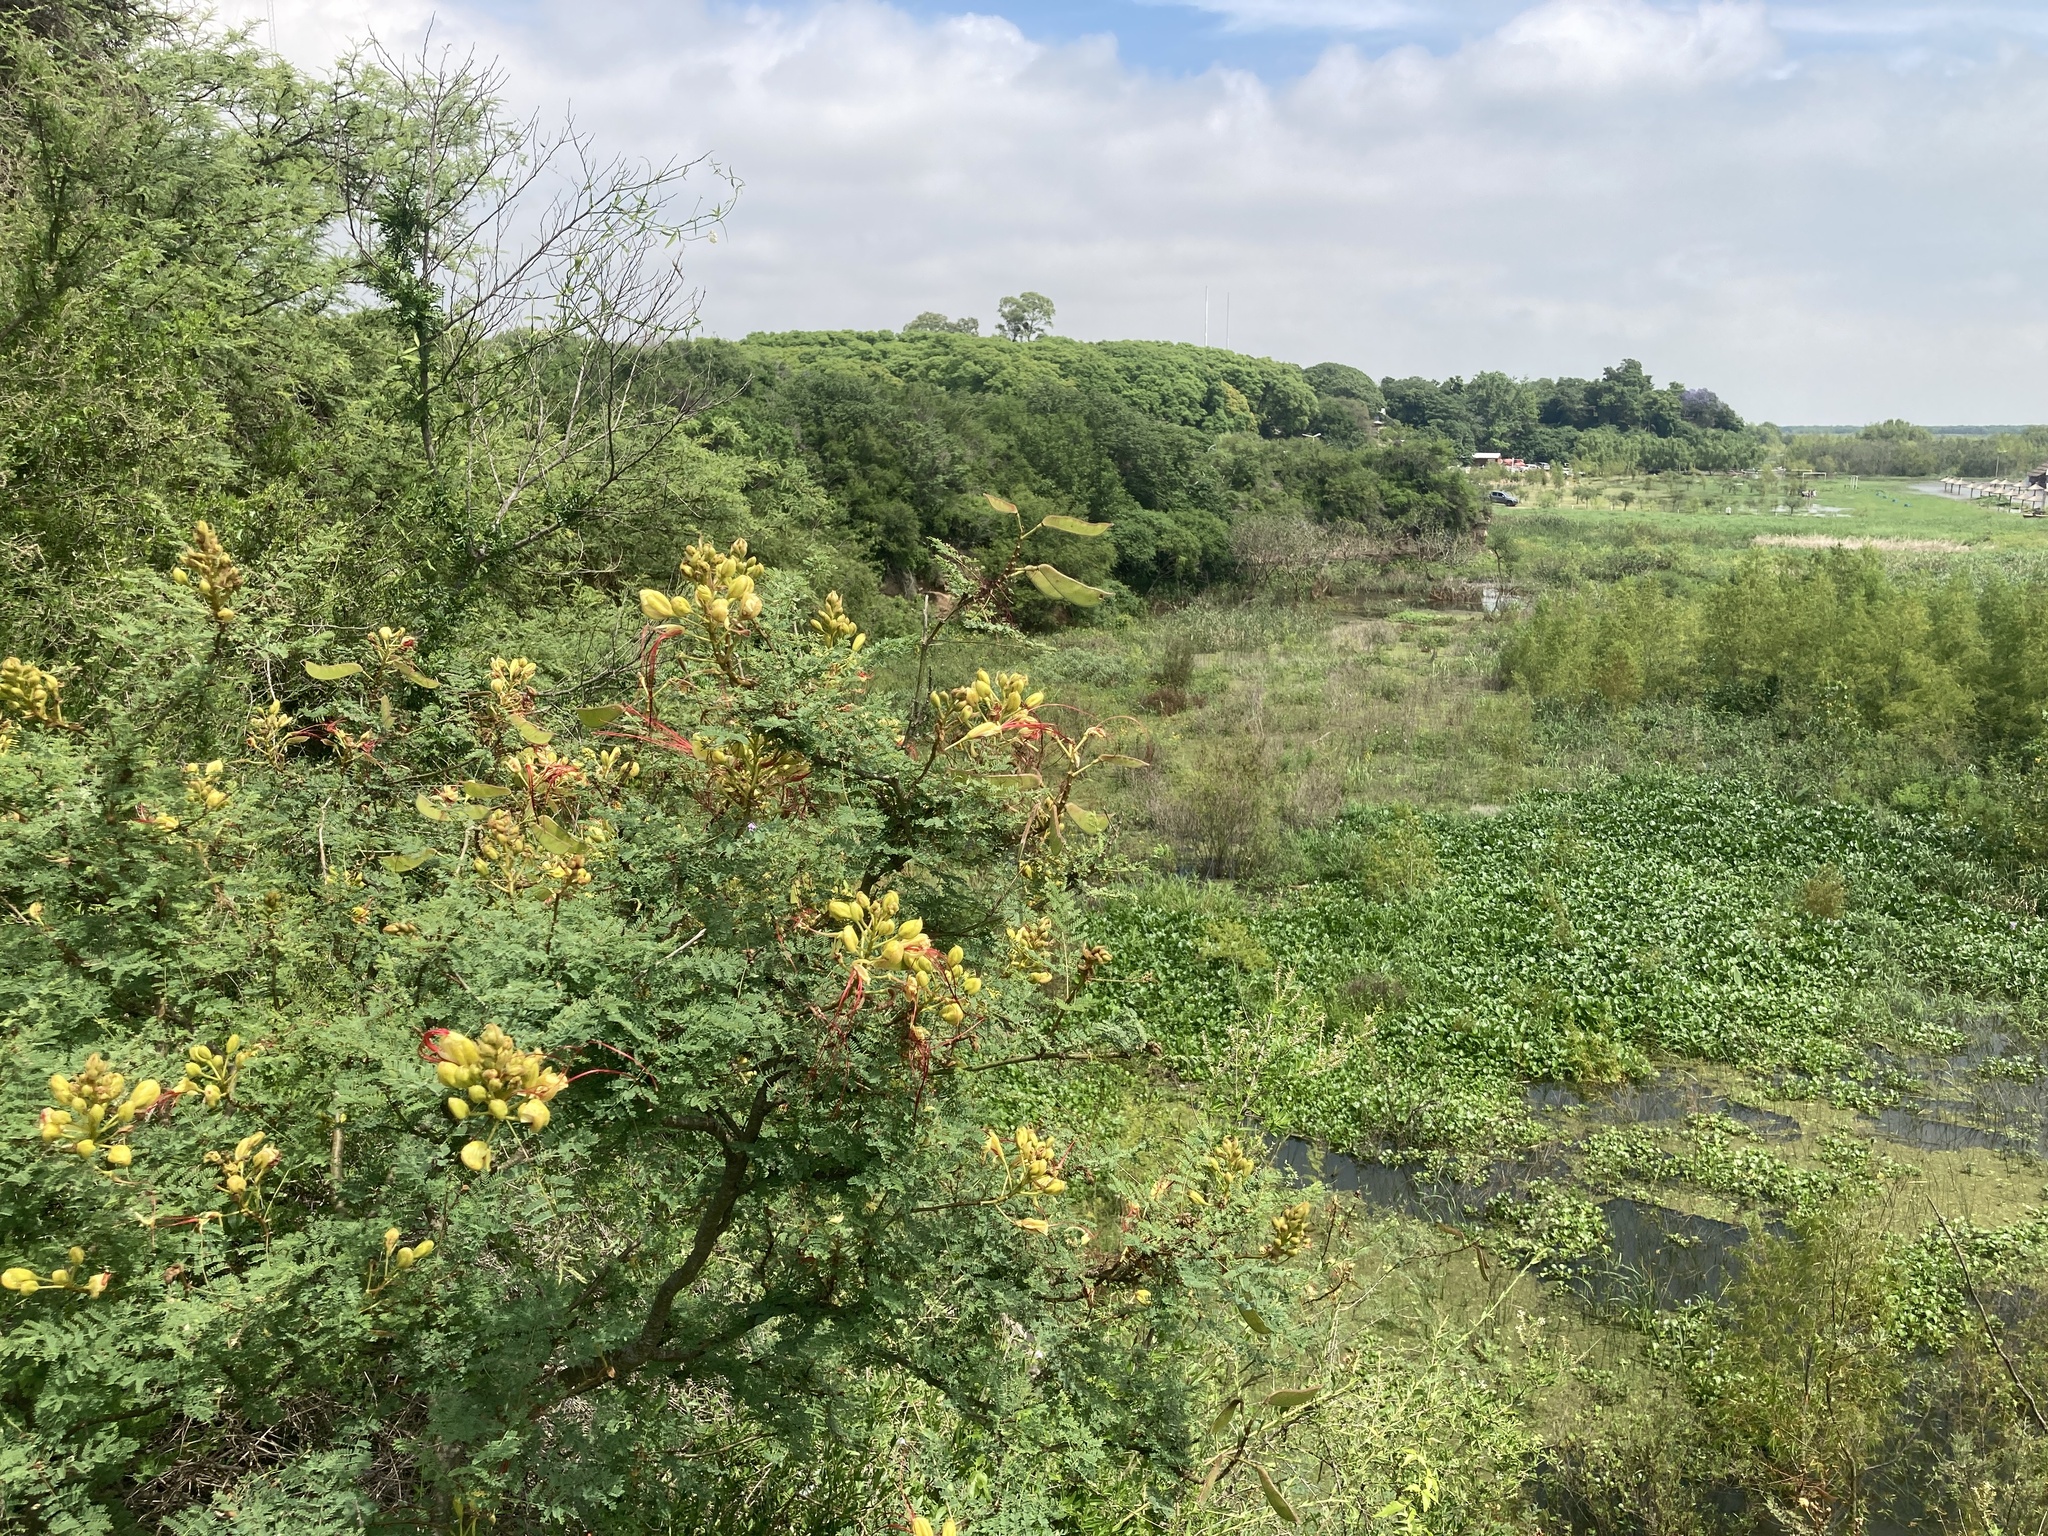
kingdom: Plantae
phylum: Tracheophyta
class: Magnoliopsida
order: Fabales
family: Fabaceae
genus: Erythrostemon
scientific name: Erythrostemon gilliesii
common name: Bird-of-paradise shrub
